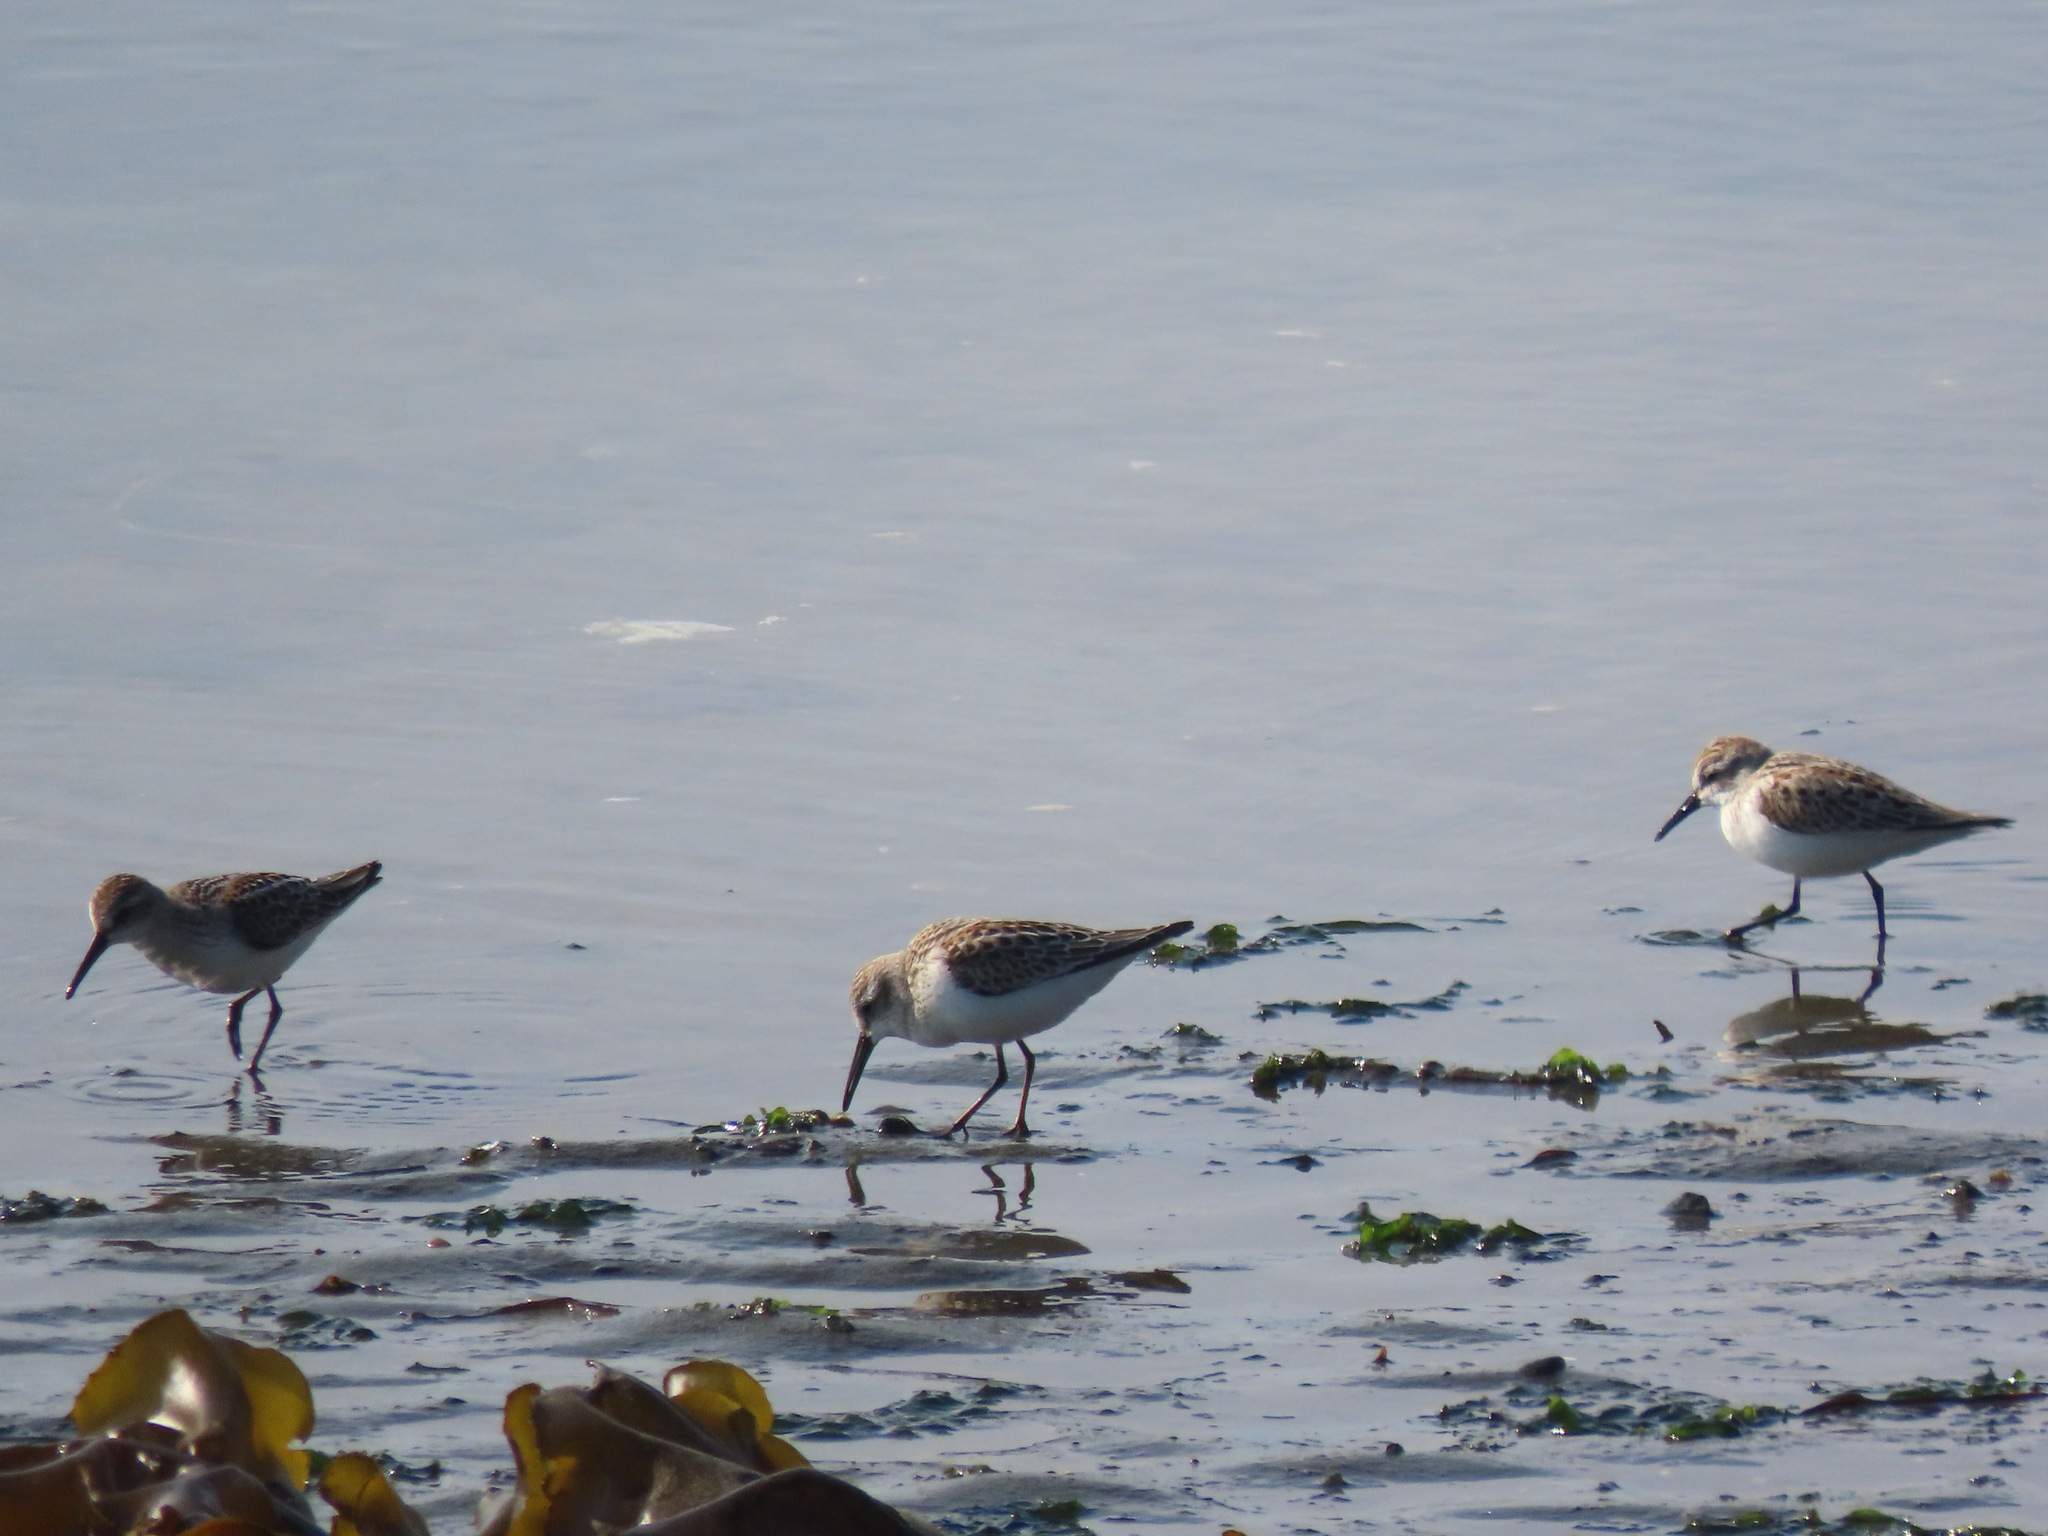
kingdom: Animalia
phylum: Chordata
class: Aves
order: Charadriiformes
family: Scolopacidae
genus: Calidris
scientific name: Calidris mauri
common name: Western sandpiper
